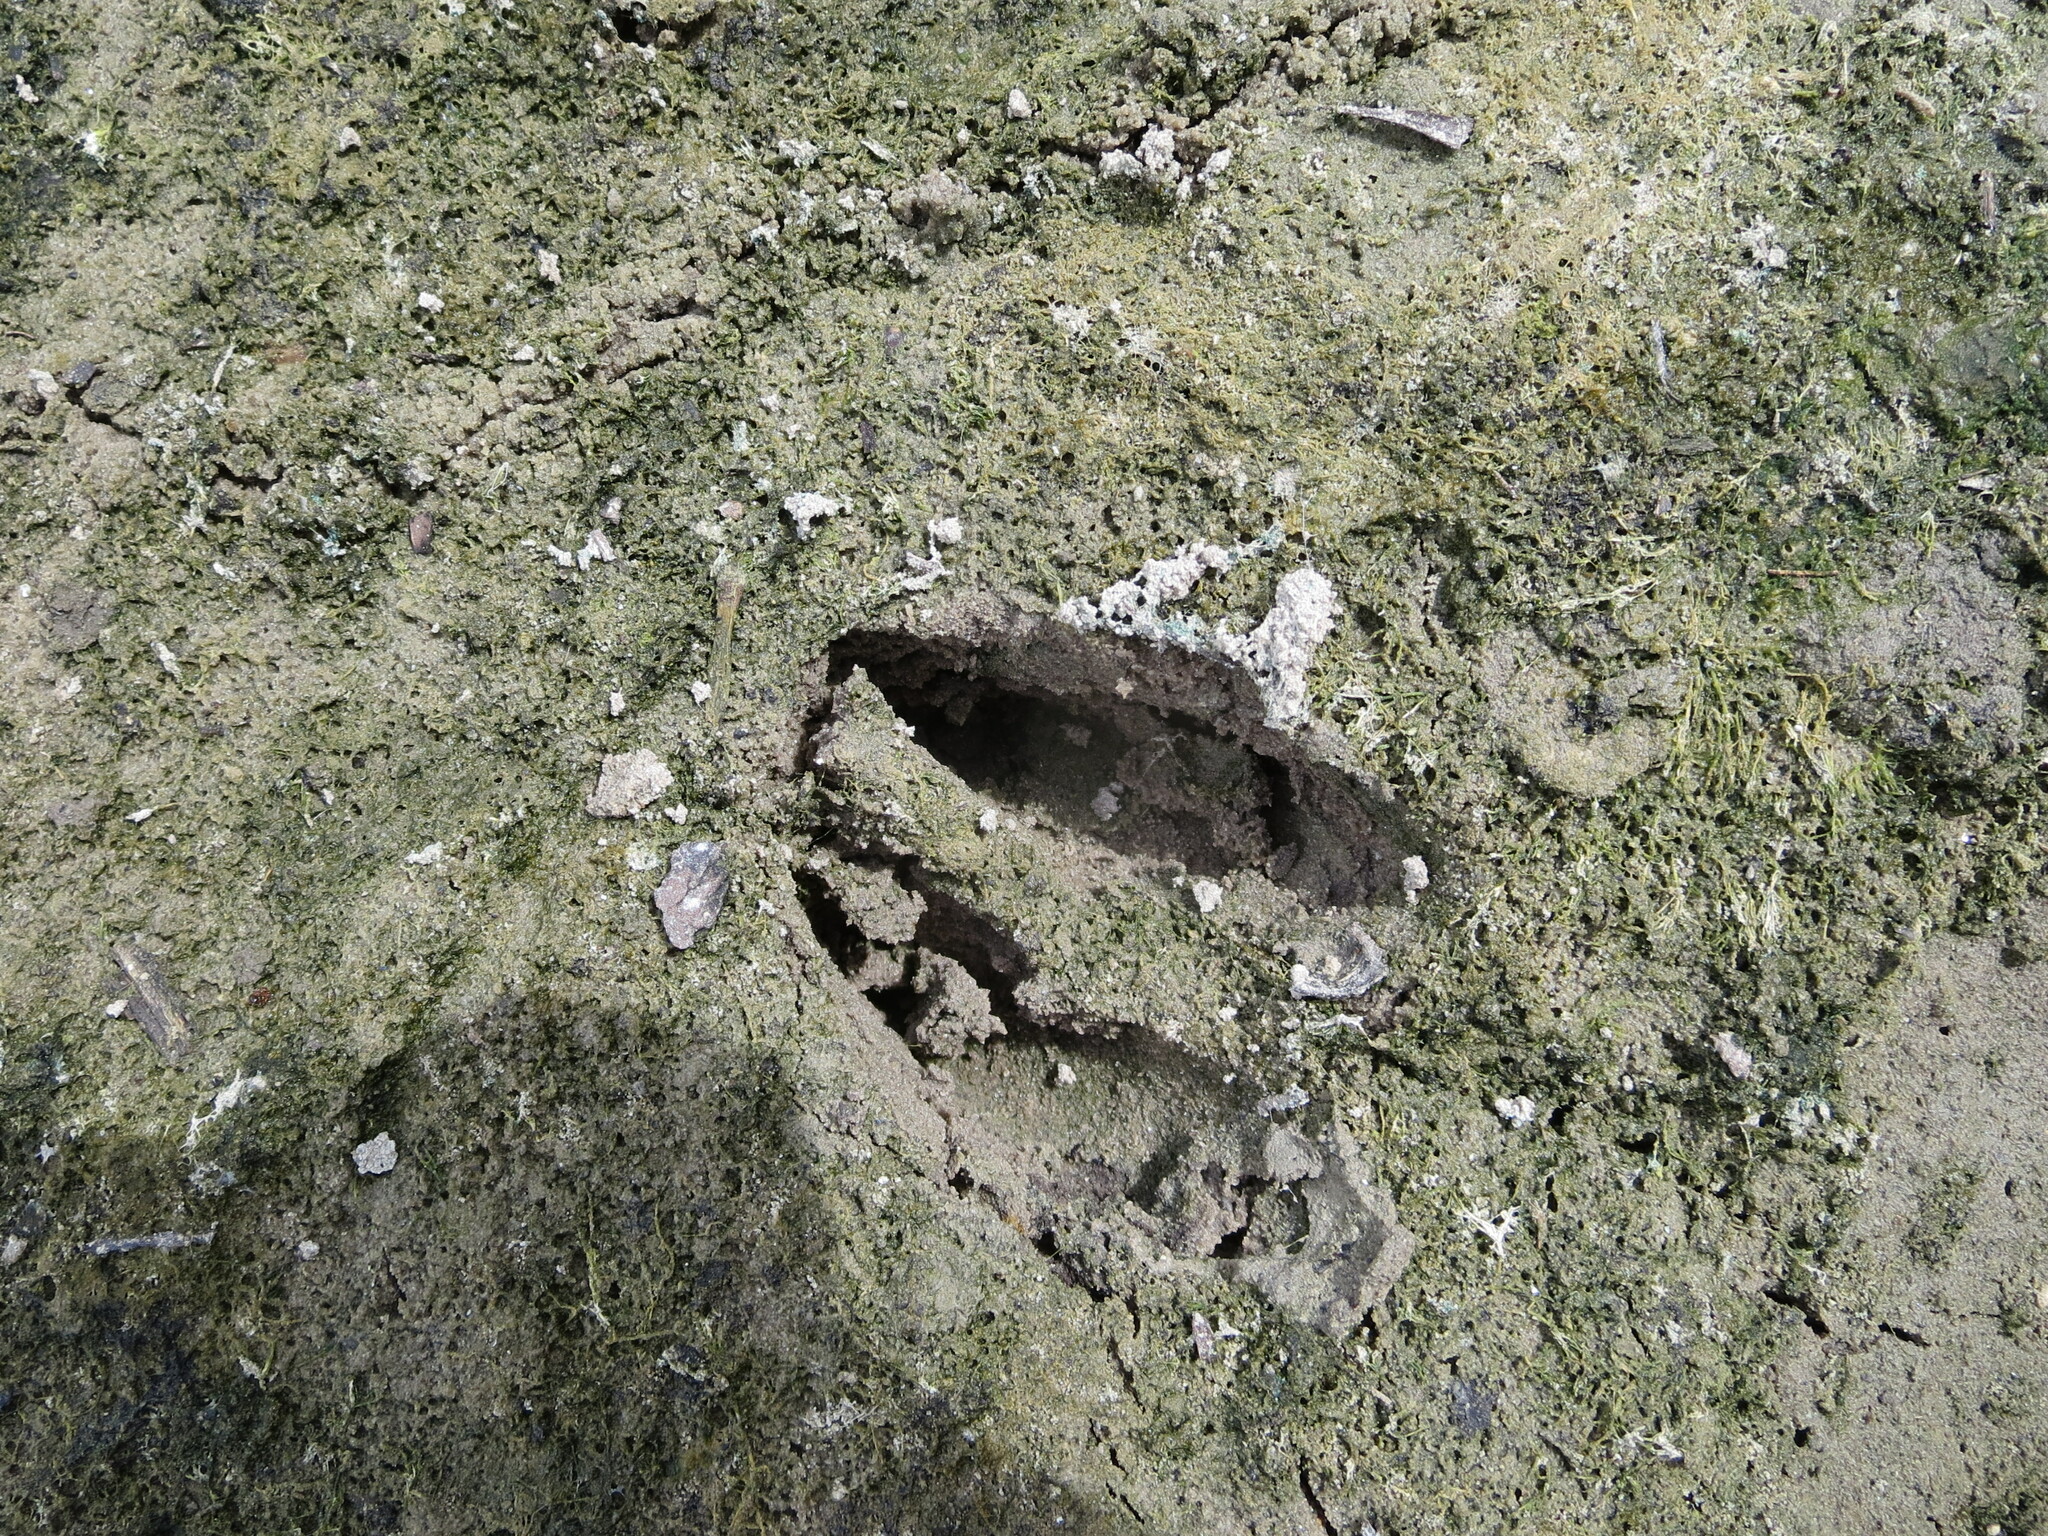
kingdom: Animalia
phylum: Chordata
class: Mammalia
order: Artiodactyla
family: Cervidae
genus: Odocoileus
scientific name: Odocoileus virginianus
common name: White-tailed deer
